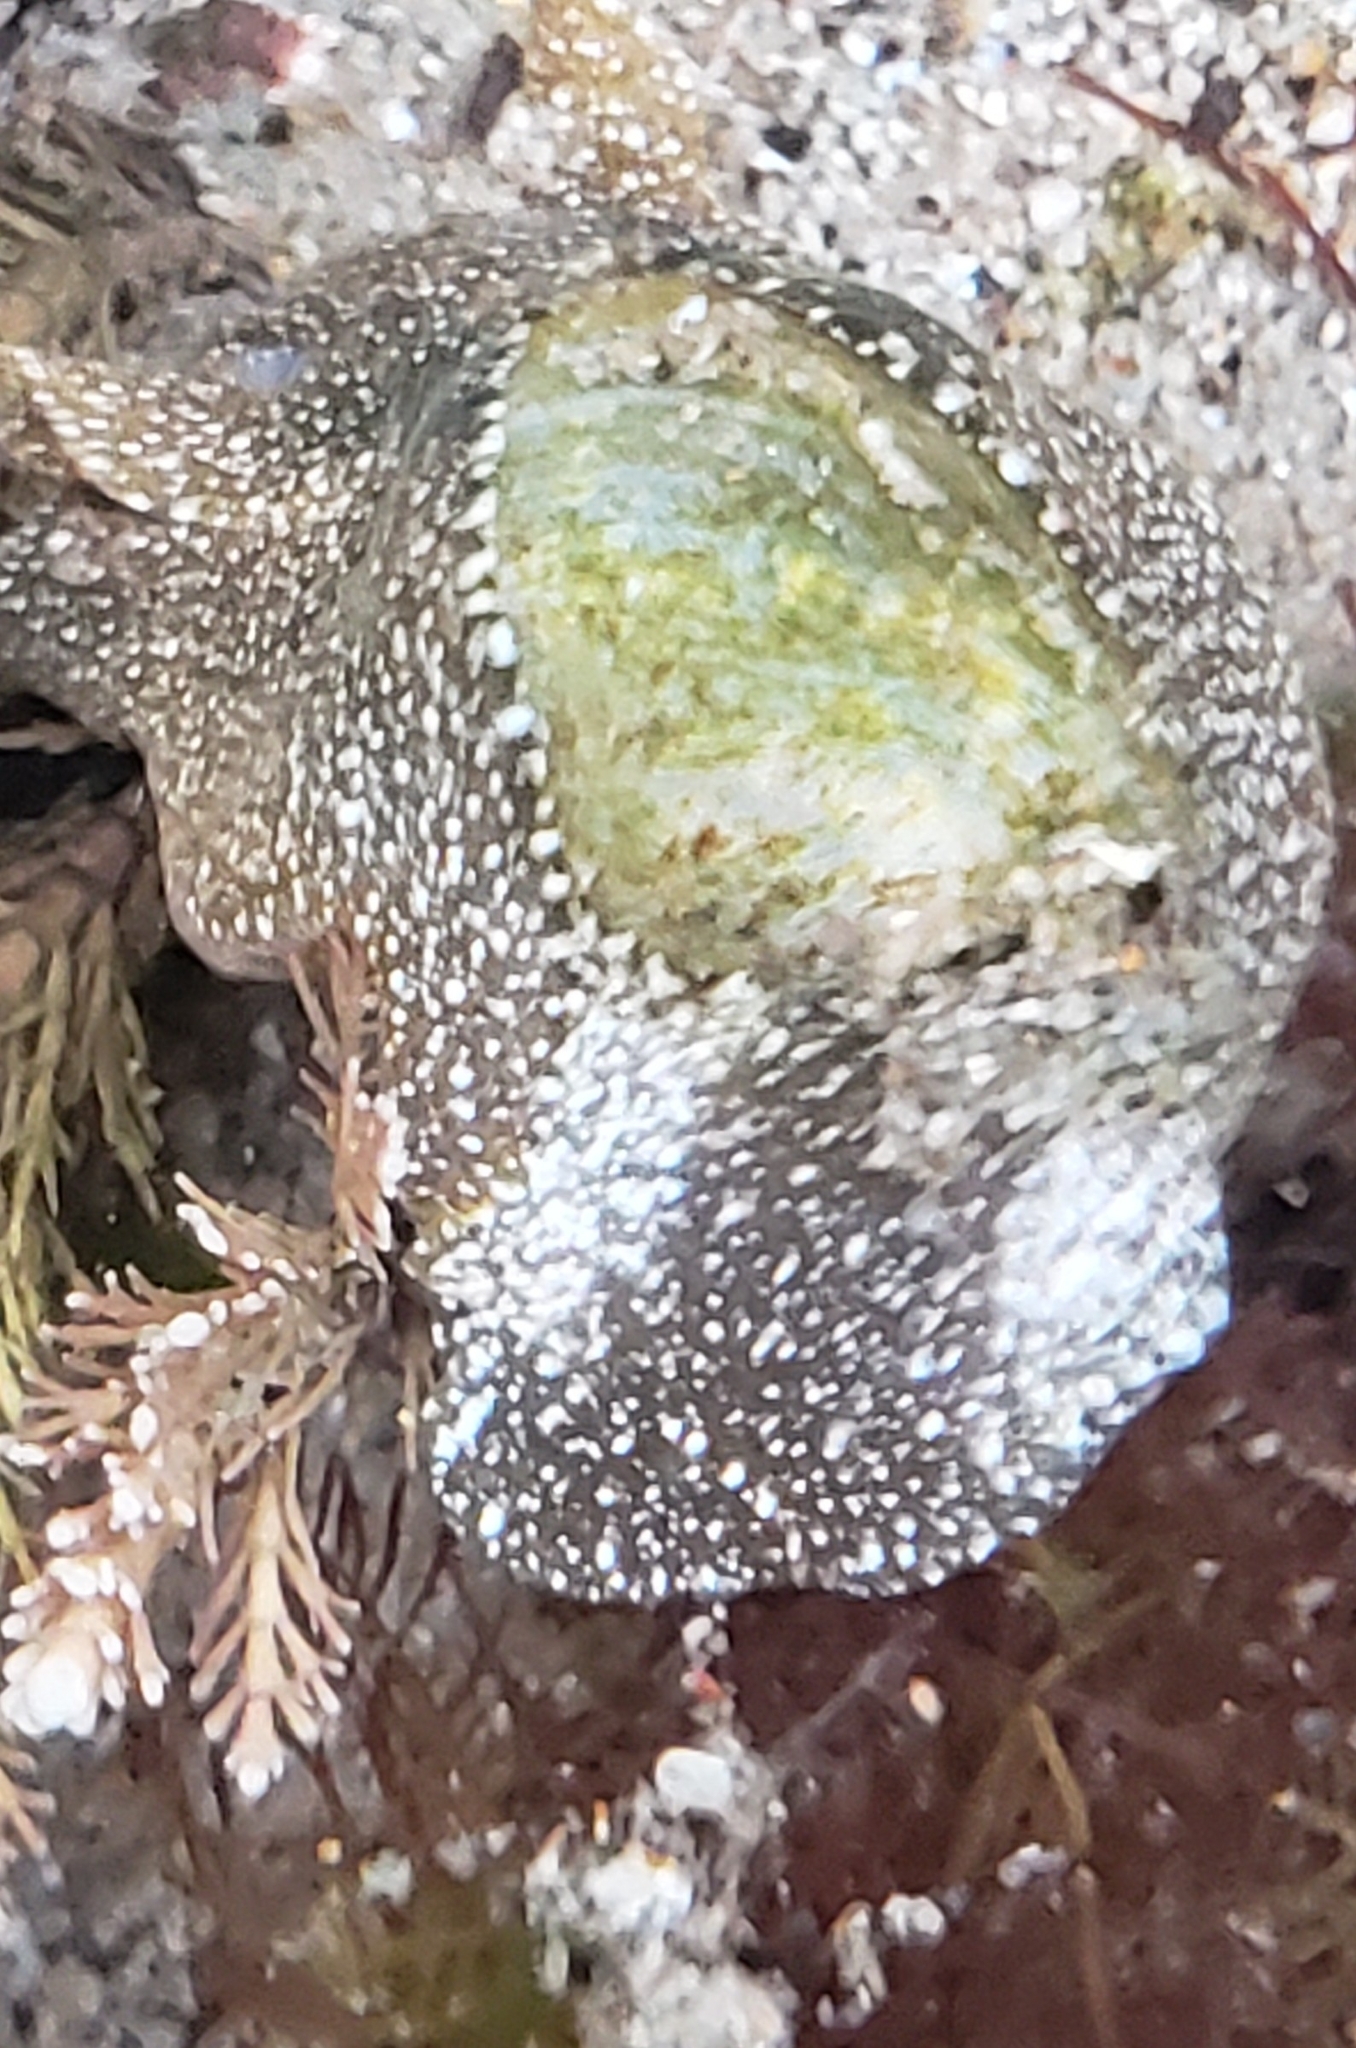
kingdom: Animalia
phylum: Mollusca
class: Gastropoda
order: Cephalaspidea
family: Haminoeidae
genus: Haminoea
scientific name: Haminoea virescens
